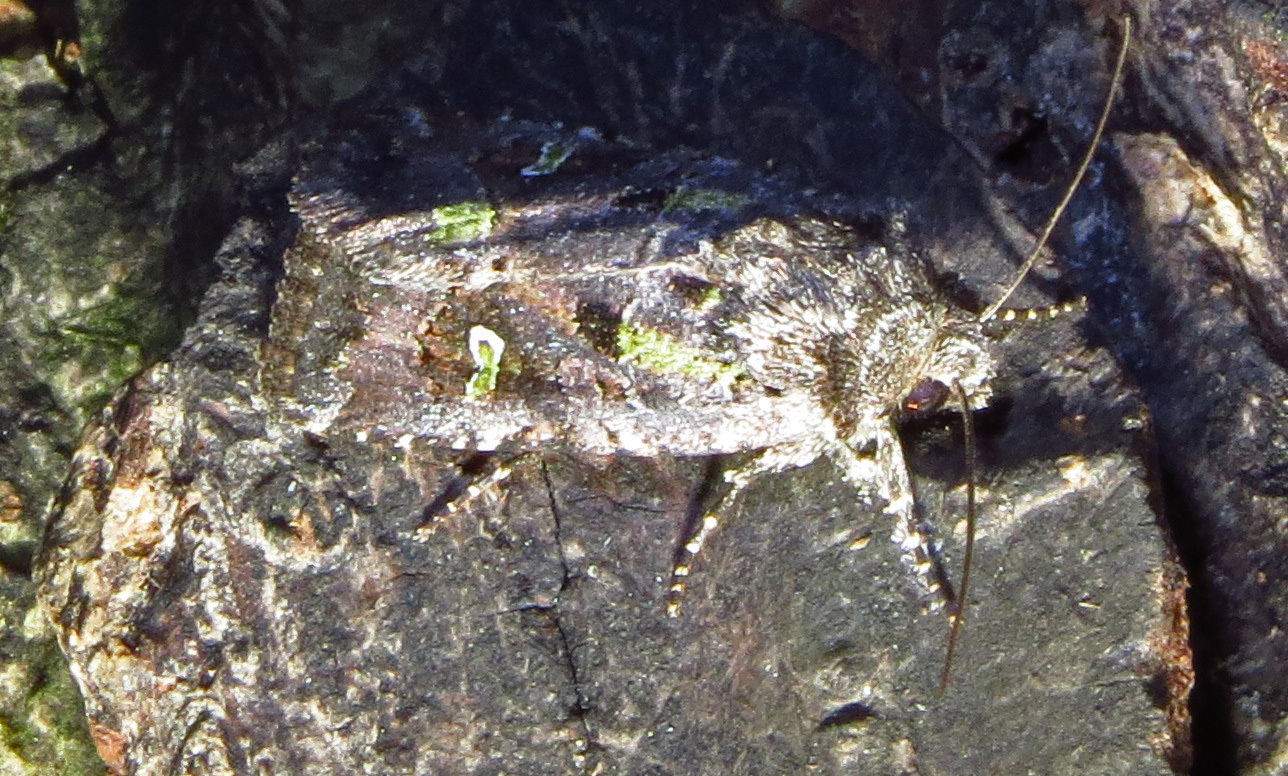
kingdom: Animalia
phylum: Arthropoda
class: Insecta
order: Lepidoptera
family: Noctuidae
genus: Lacinipolia
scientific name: Lacinipolia renigera
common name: Kidney-spotted minor
